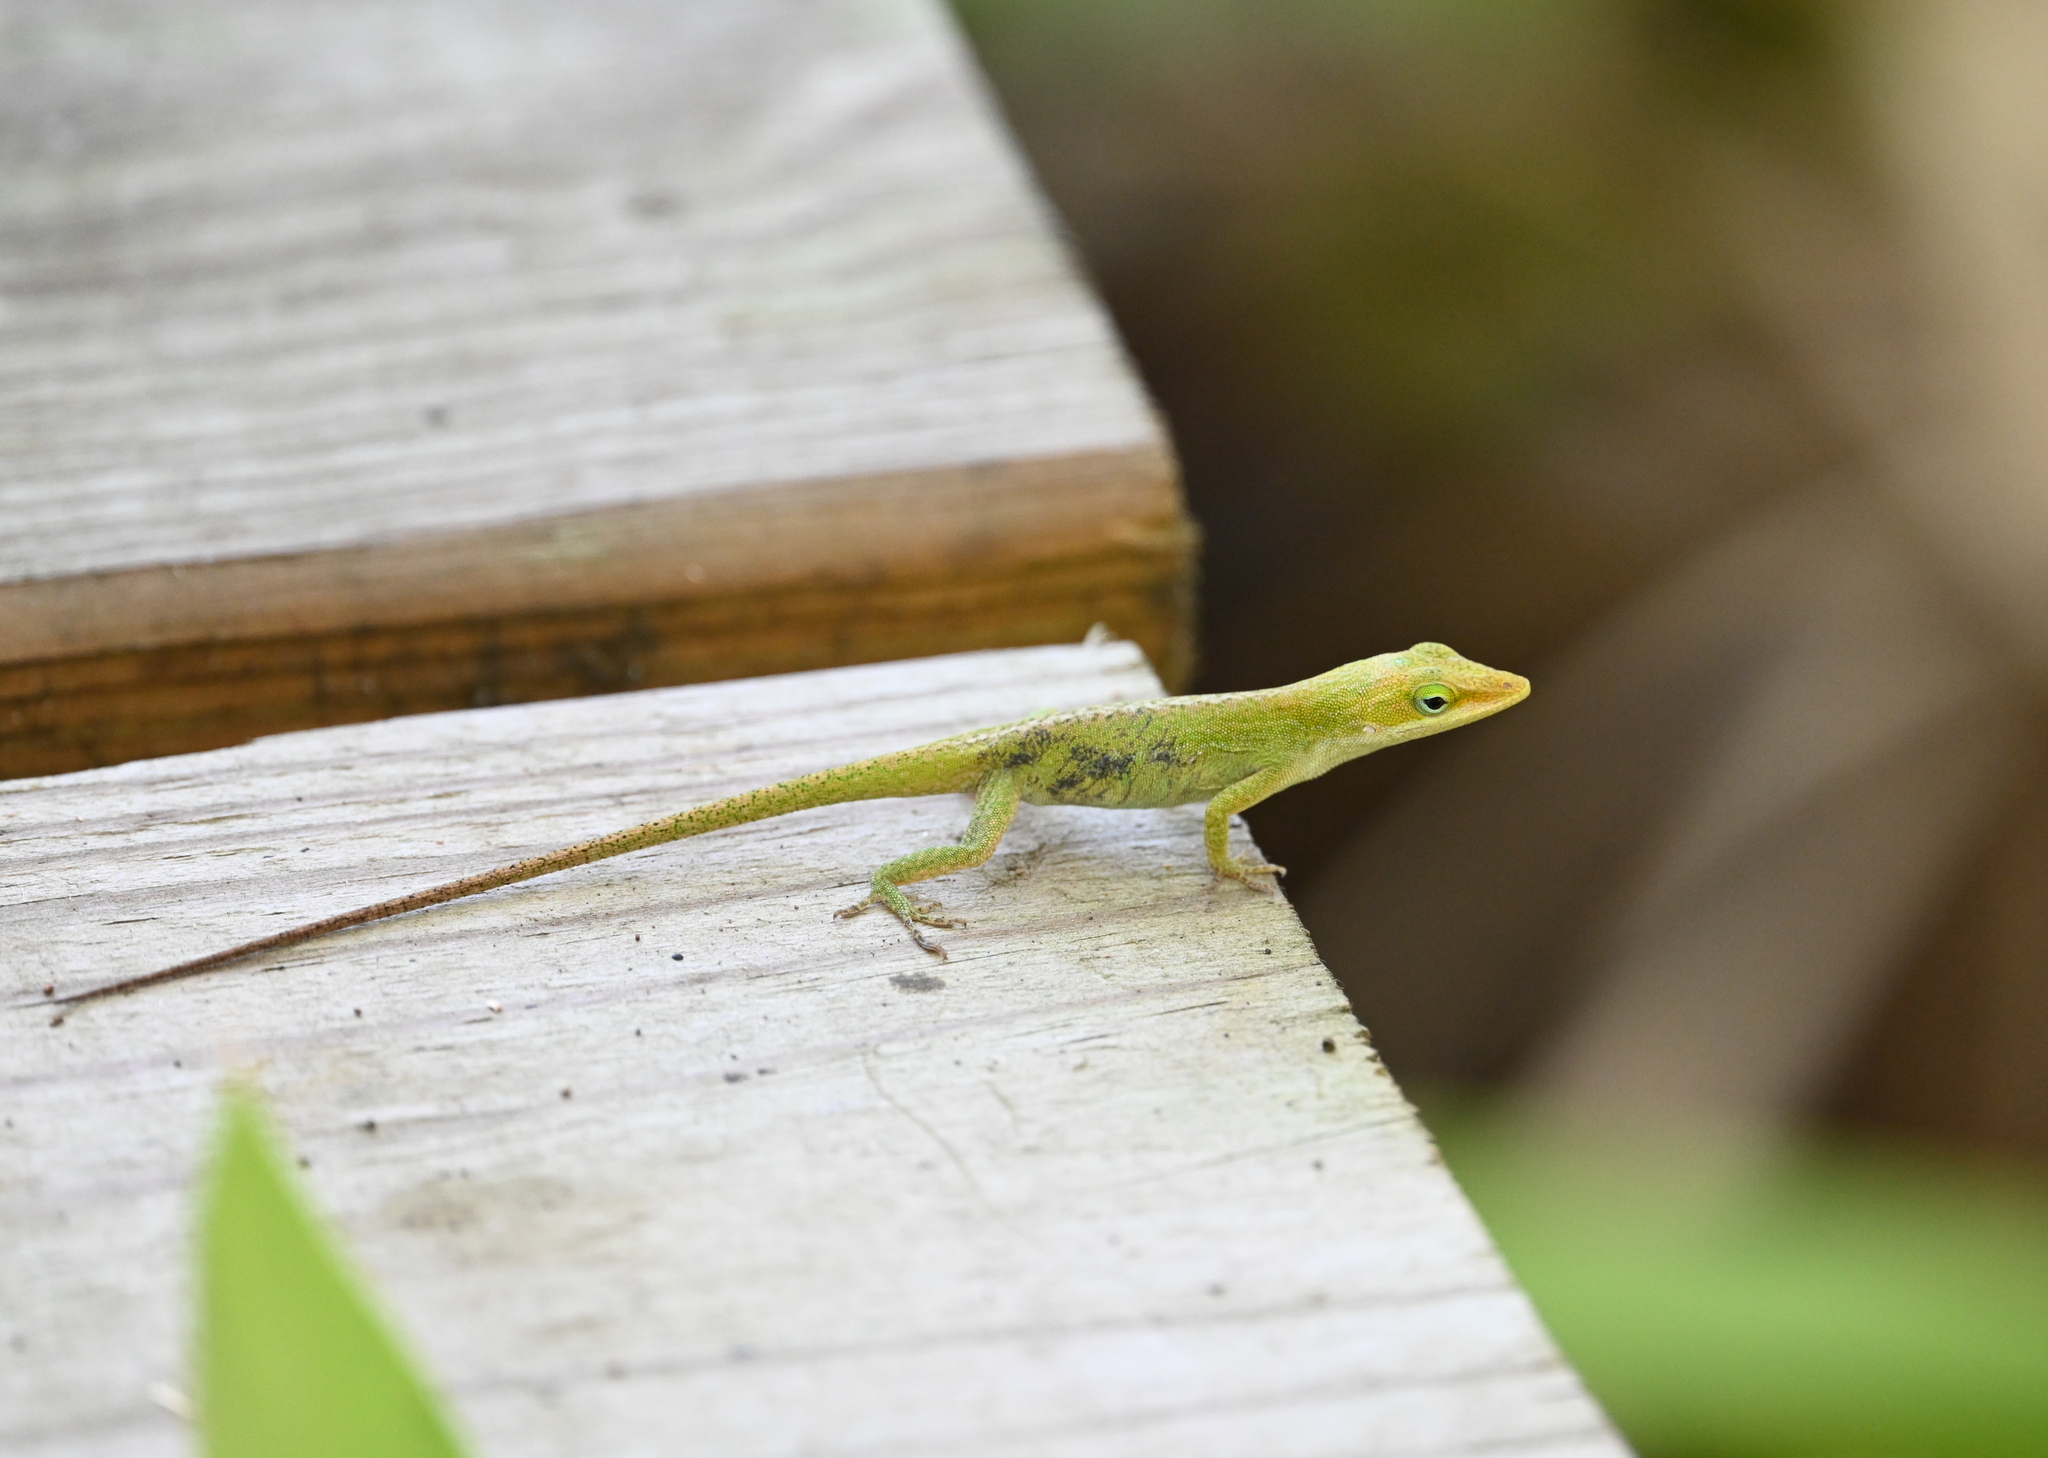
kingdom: Animalia
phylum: Chordata
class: Squamata
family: Dactyloidae
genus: Anolis
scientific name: Anolis carolinensis
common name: Green anole
